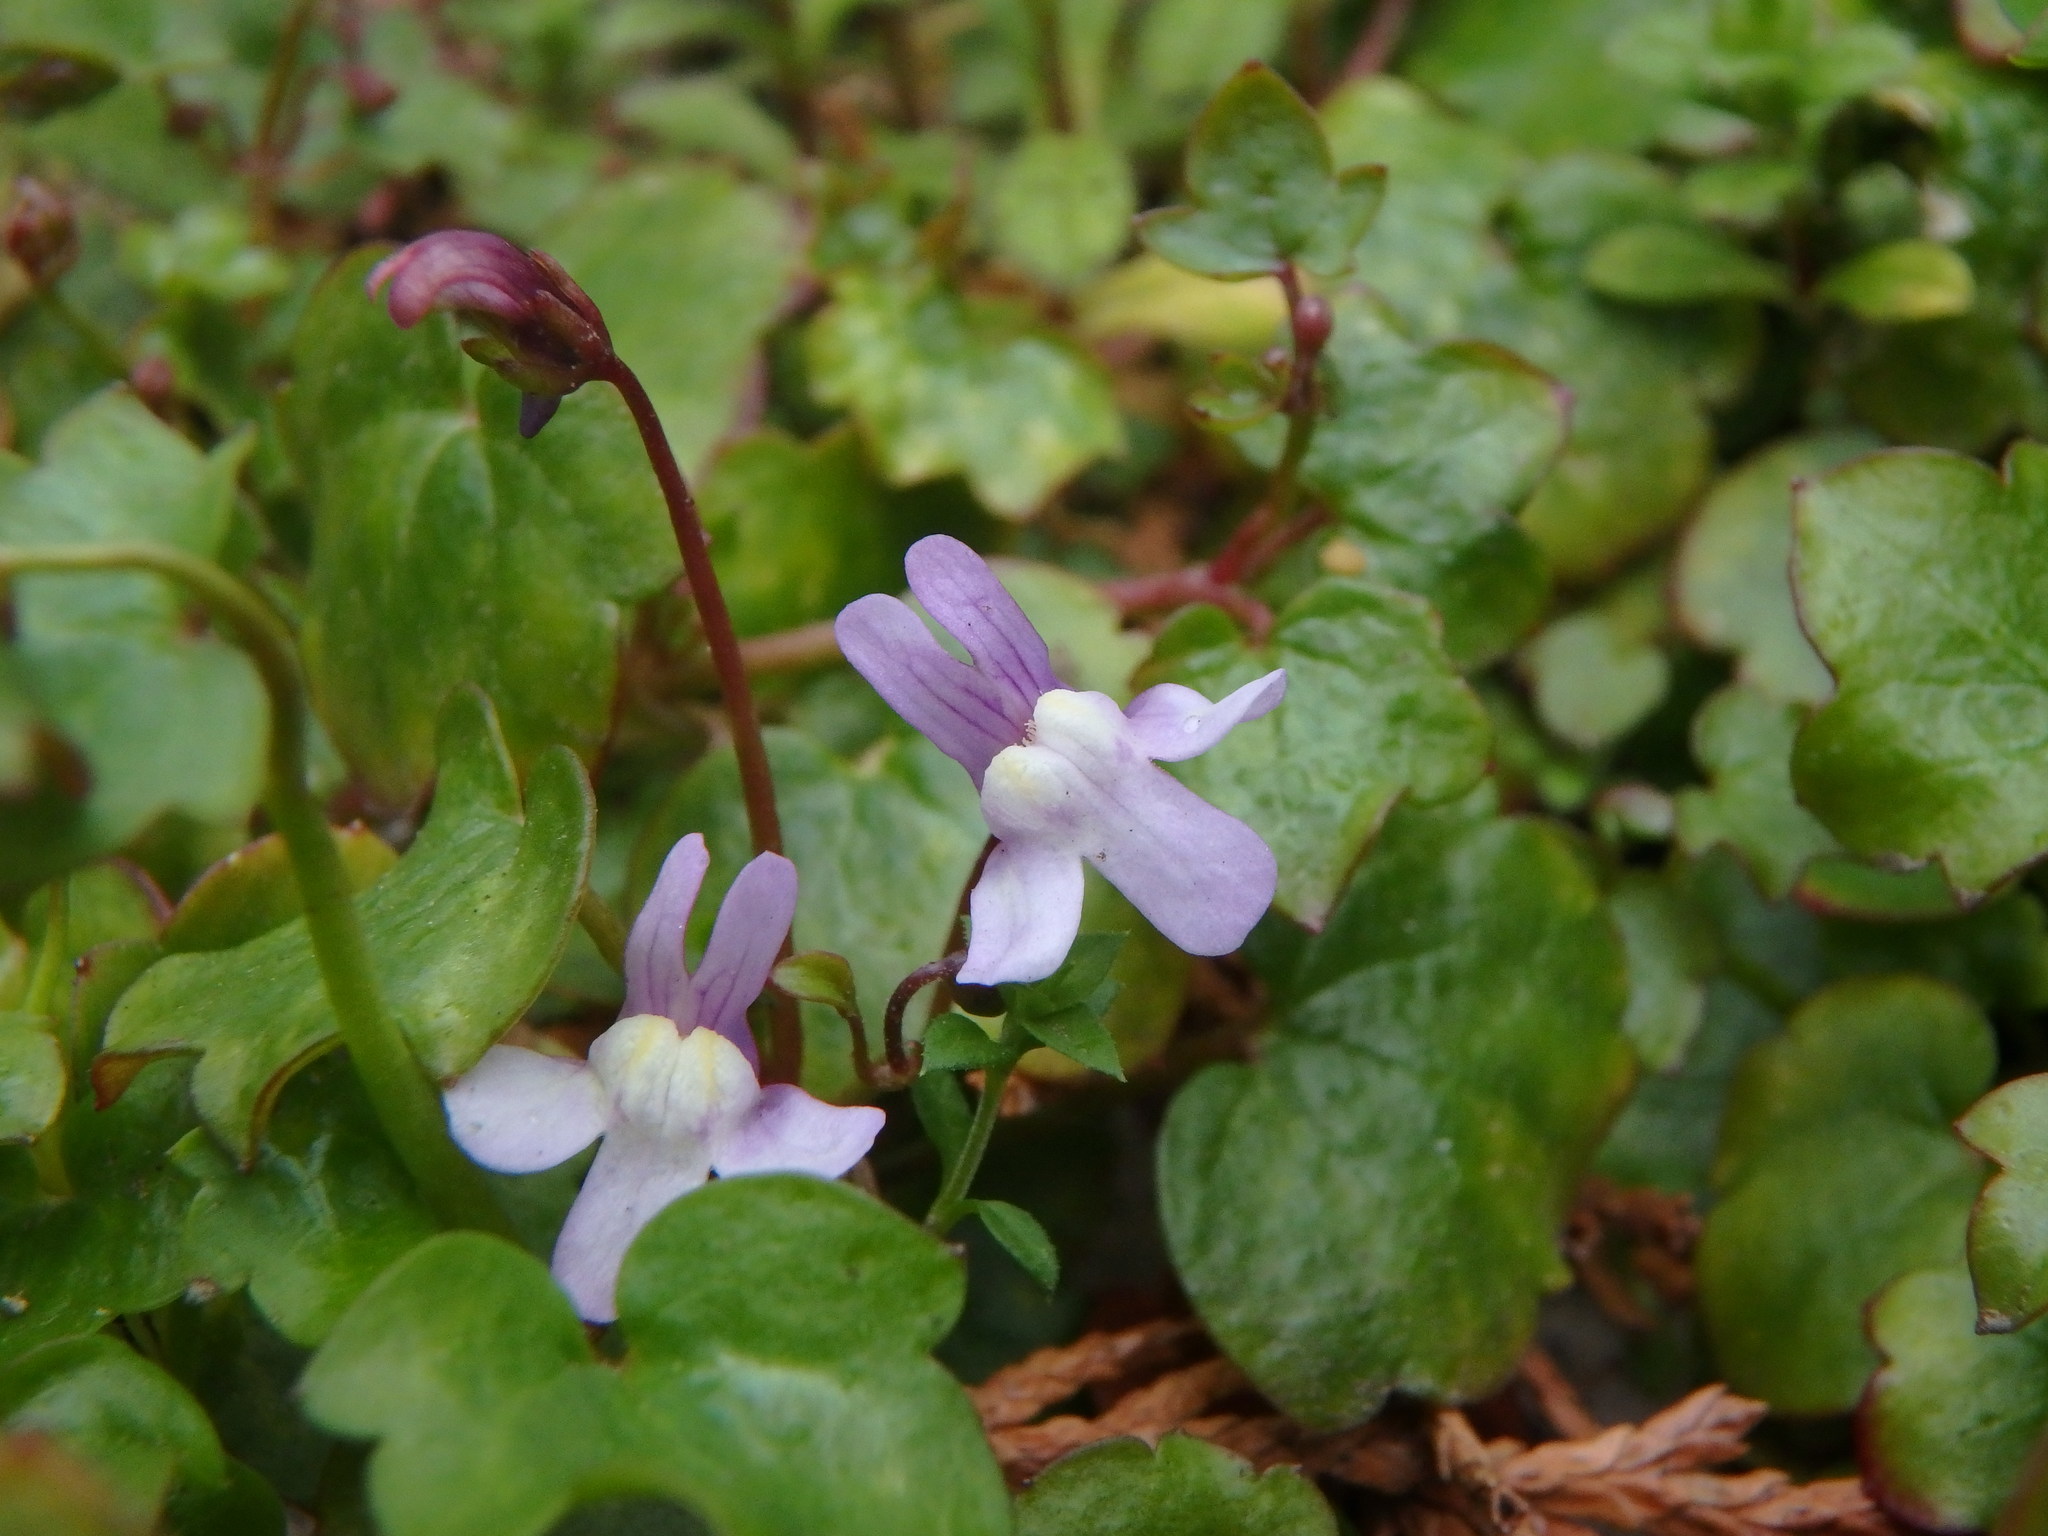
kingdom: Plantae
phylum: Tracheophyta
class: Magnoliopsida
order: Lamiales
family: Plantaginaceae
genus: Cymbalaria
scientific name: Cymbalaria muralis
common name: Ivy-leaved toadflax
